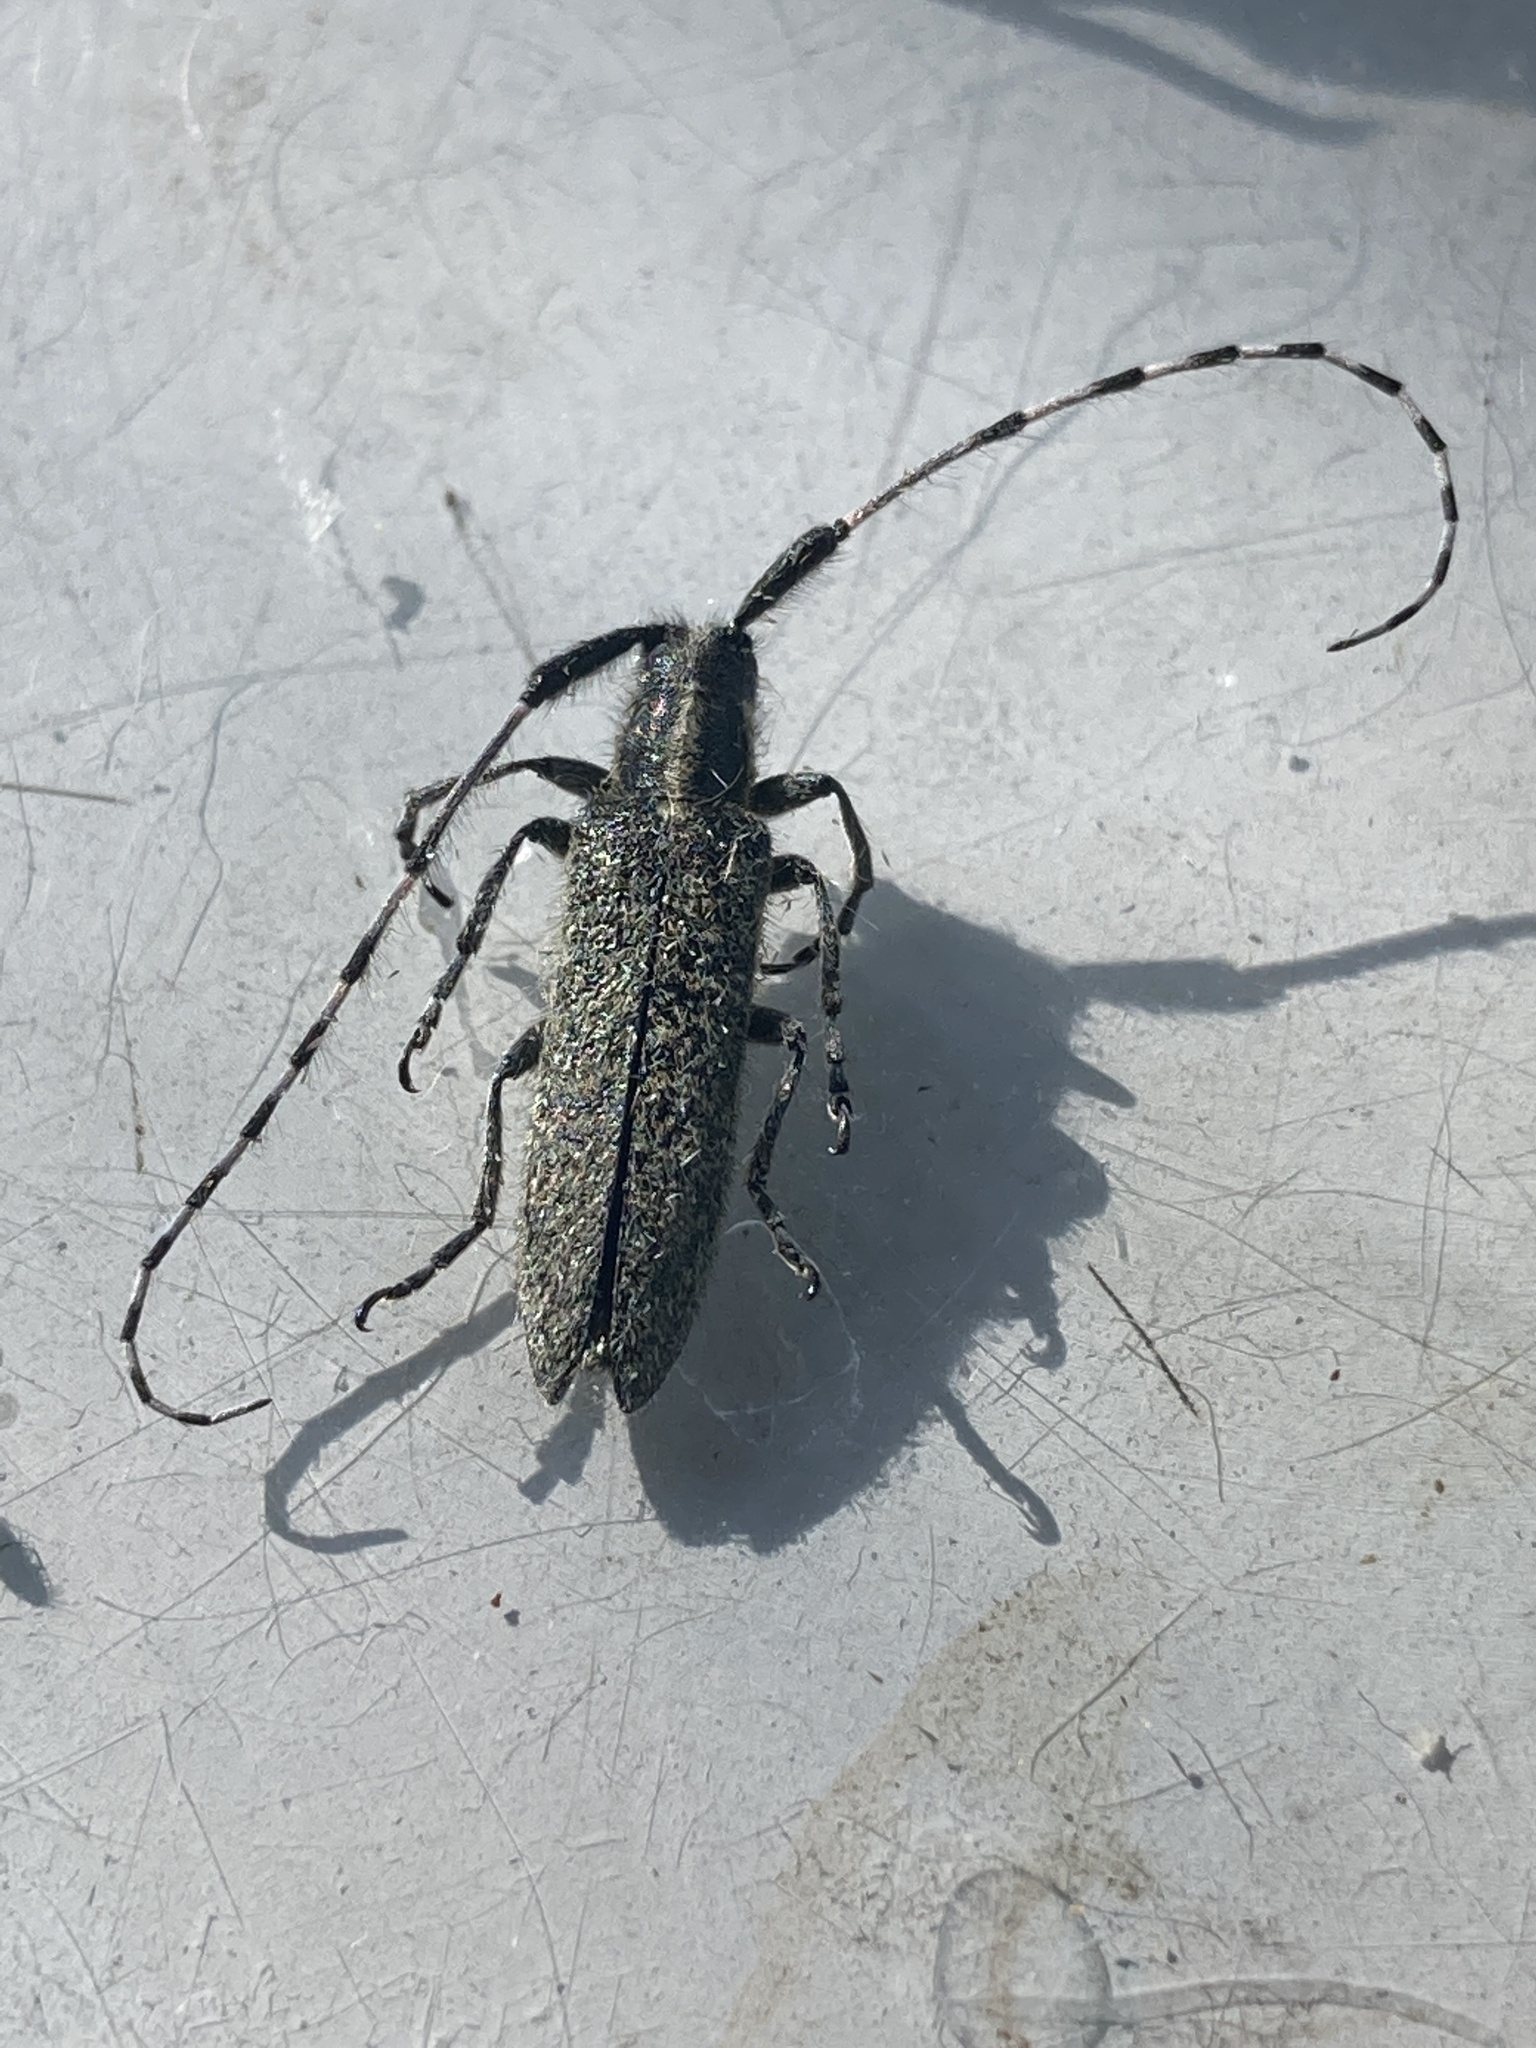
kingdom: Animalia
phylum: Arthropoda
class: Insecta
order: Coleoptera
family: Cerambycidae
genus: Agapanthia
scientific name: Agapanthia villosoviridescens
